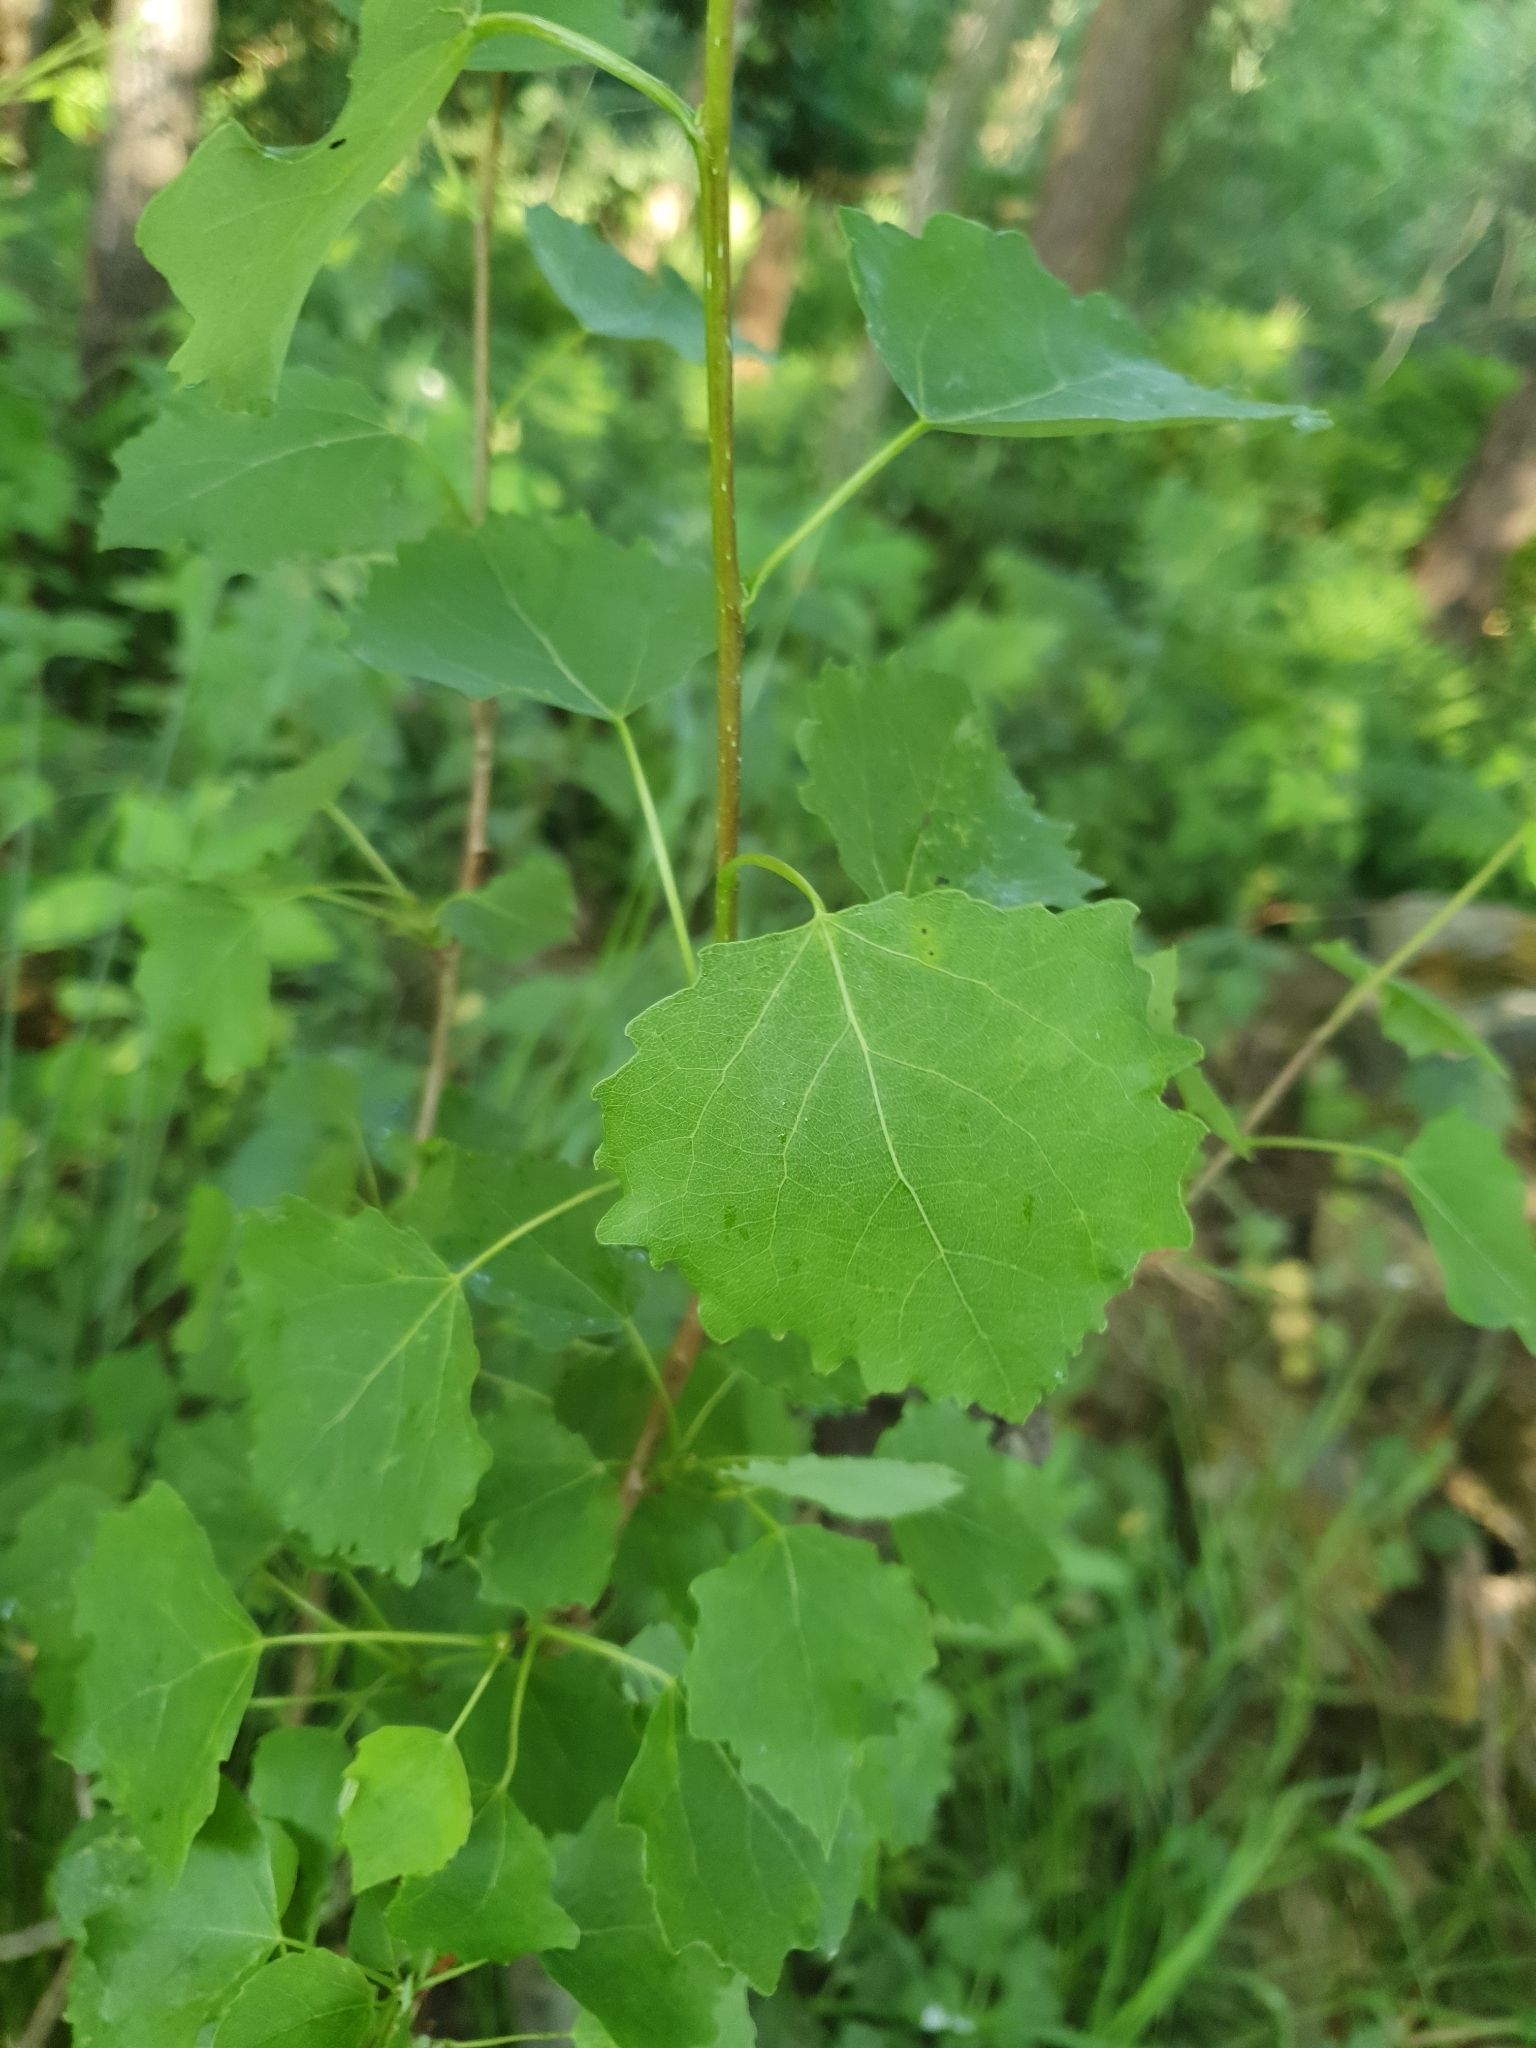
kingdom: Plantae
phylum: Tracheophyta
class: Magnoliopsida
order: Malpighiales
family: Salicaceae
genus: Populus
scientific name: Populus tremula
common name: European aspen
